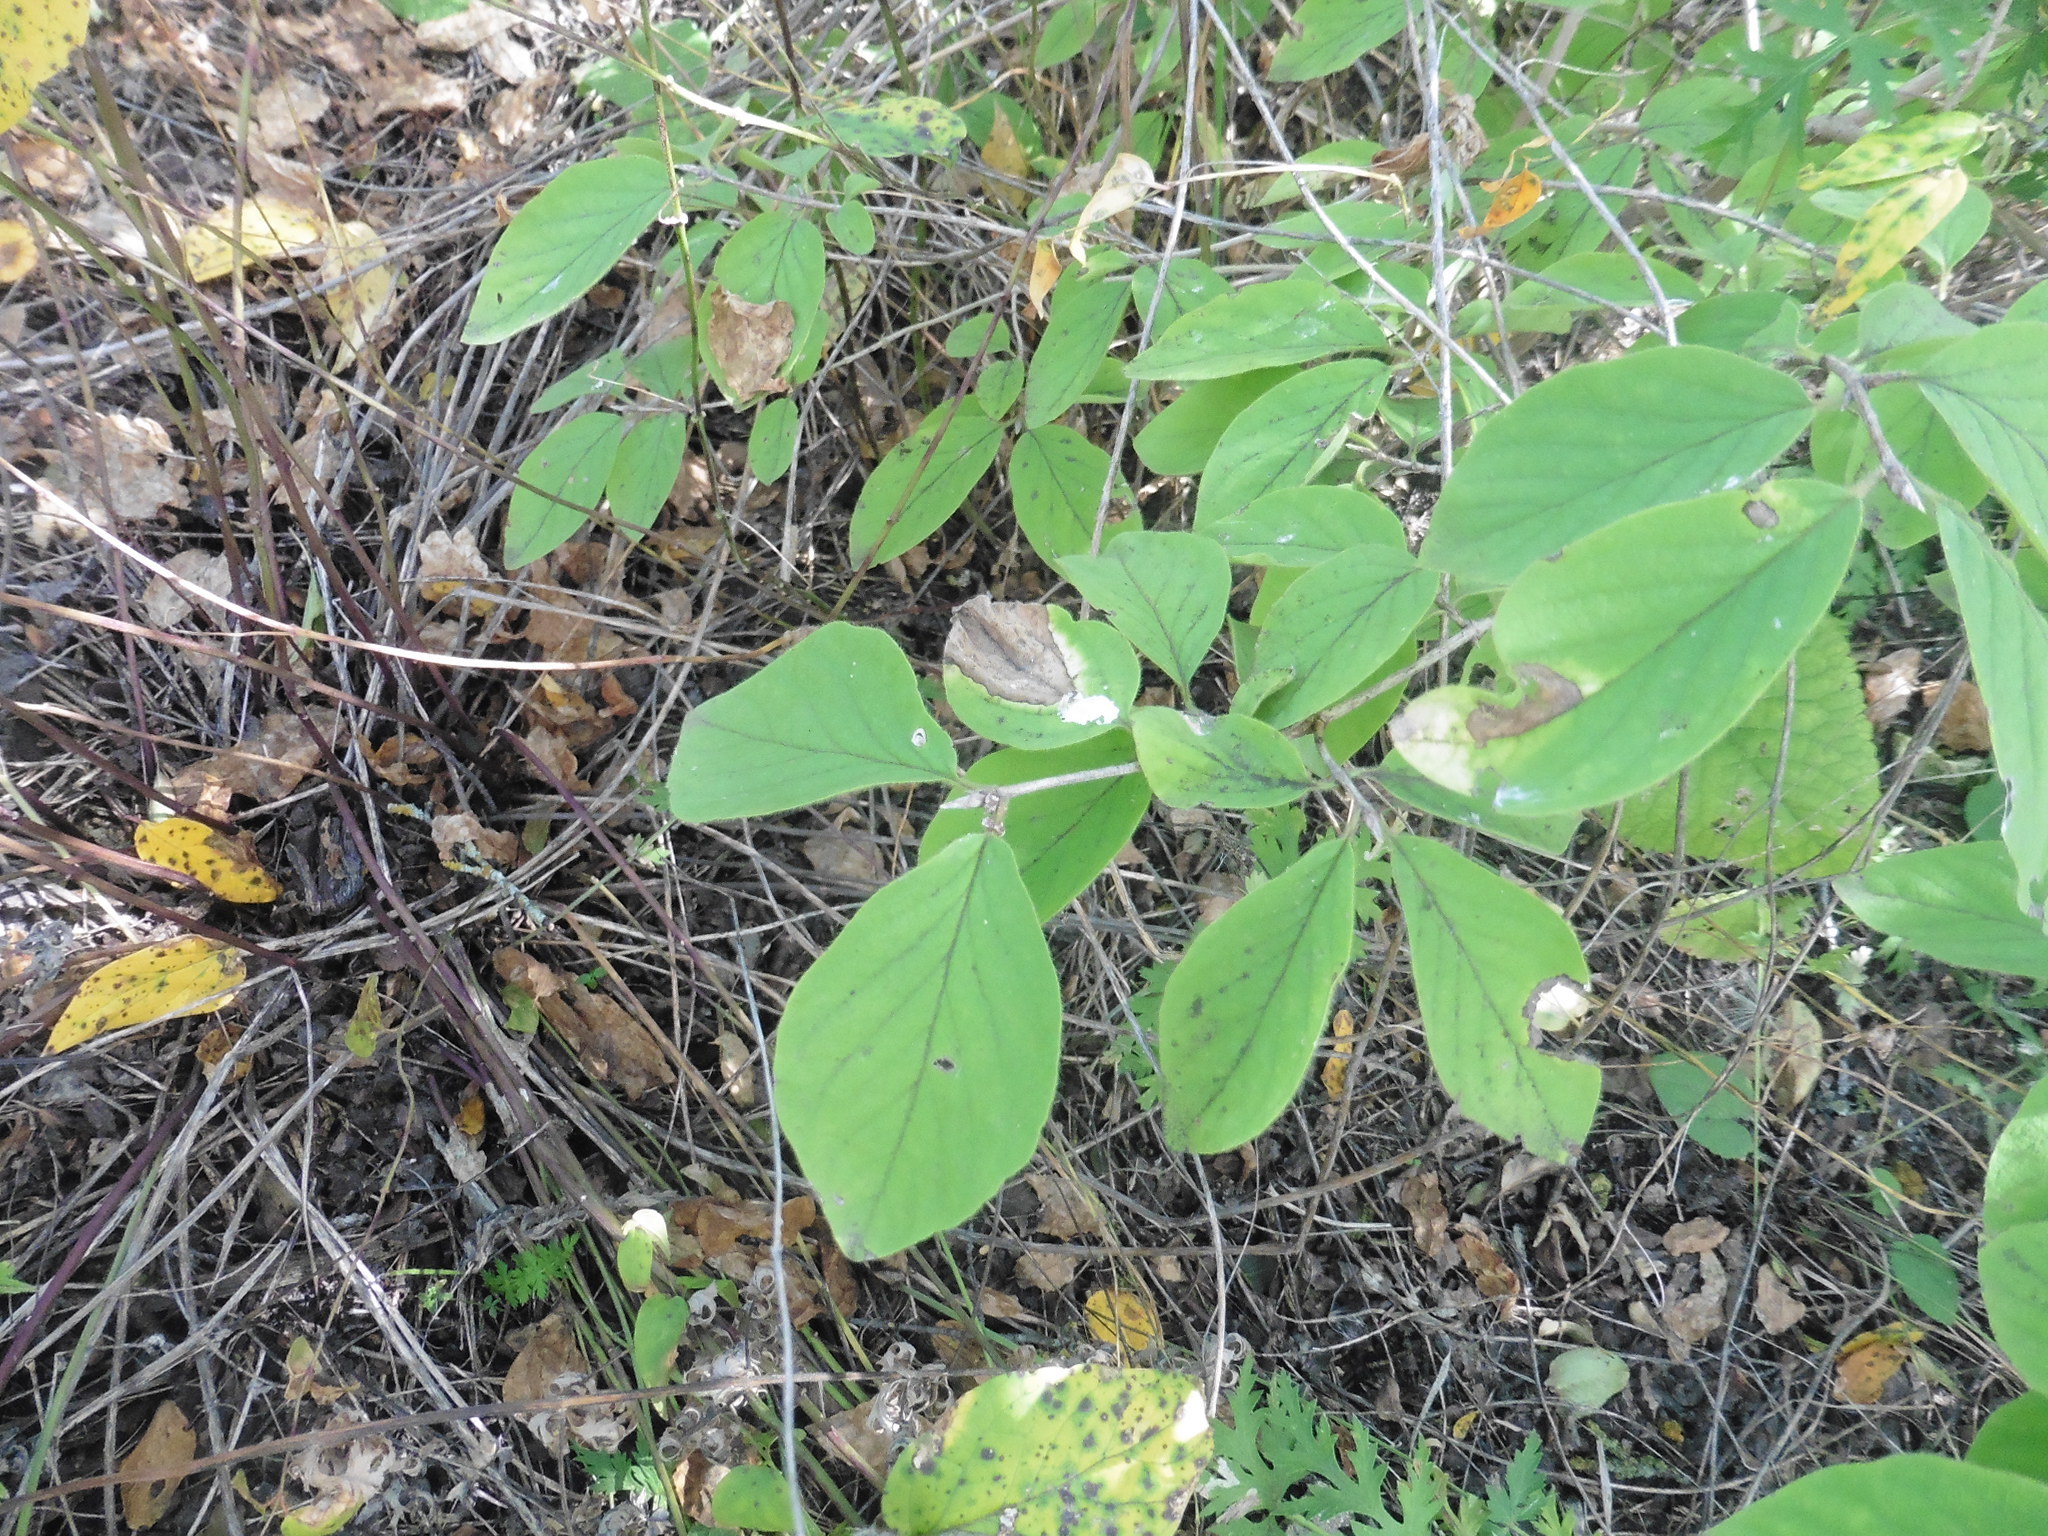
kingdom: Plantae
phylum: Tracheophyta
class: Magnoliopsida
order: Dipsacales
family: Caprifoliaceae
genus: Lonicera
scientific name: Lonicera xylosteum
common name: Fly honeysuckle
